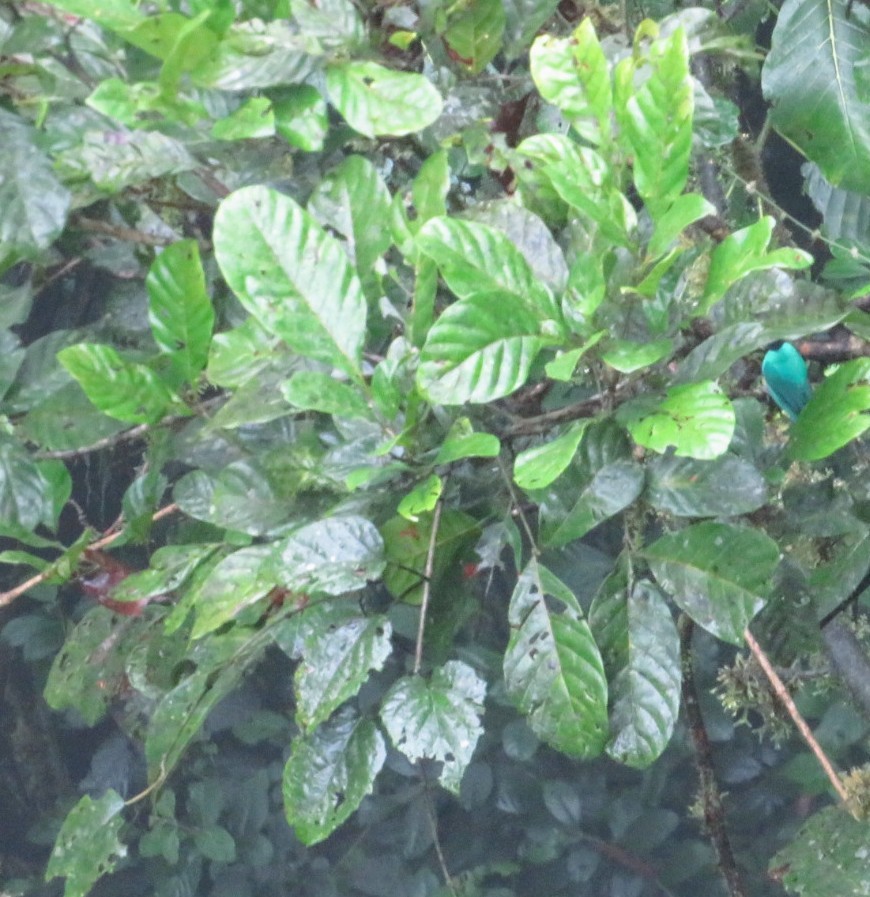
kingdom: Animalia
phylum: Chordata
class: Aves
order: Passeriformes
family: Thraupidae
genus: Chlorophanes
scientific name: Chlorophanes spiza
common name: Green honeycreeper
